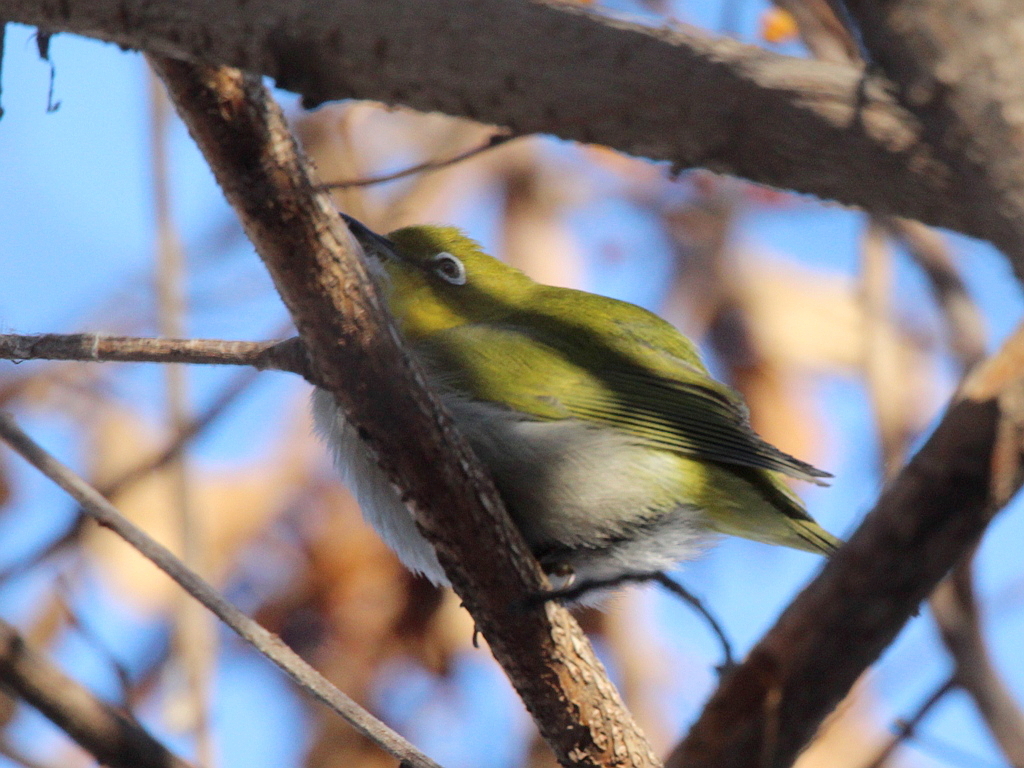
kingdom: Animalia
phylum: Chordata
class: Aves
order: Passeriformes
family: Zosteropidae
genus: Zosterops
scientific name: Zosterops japonicus
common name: Japanese white-eye
